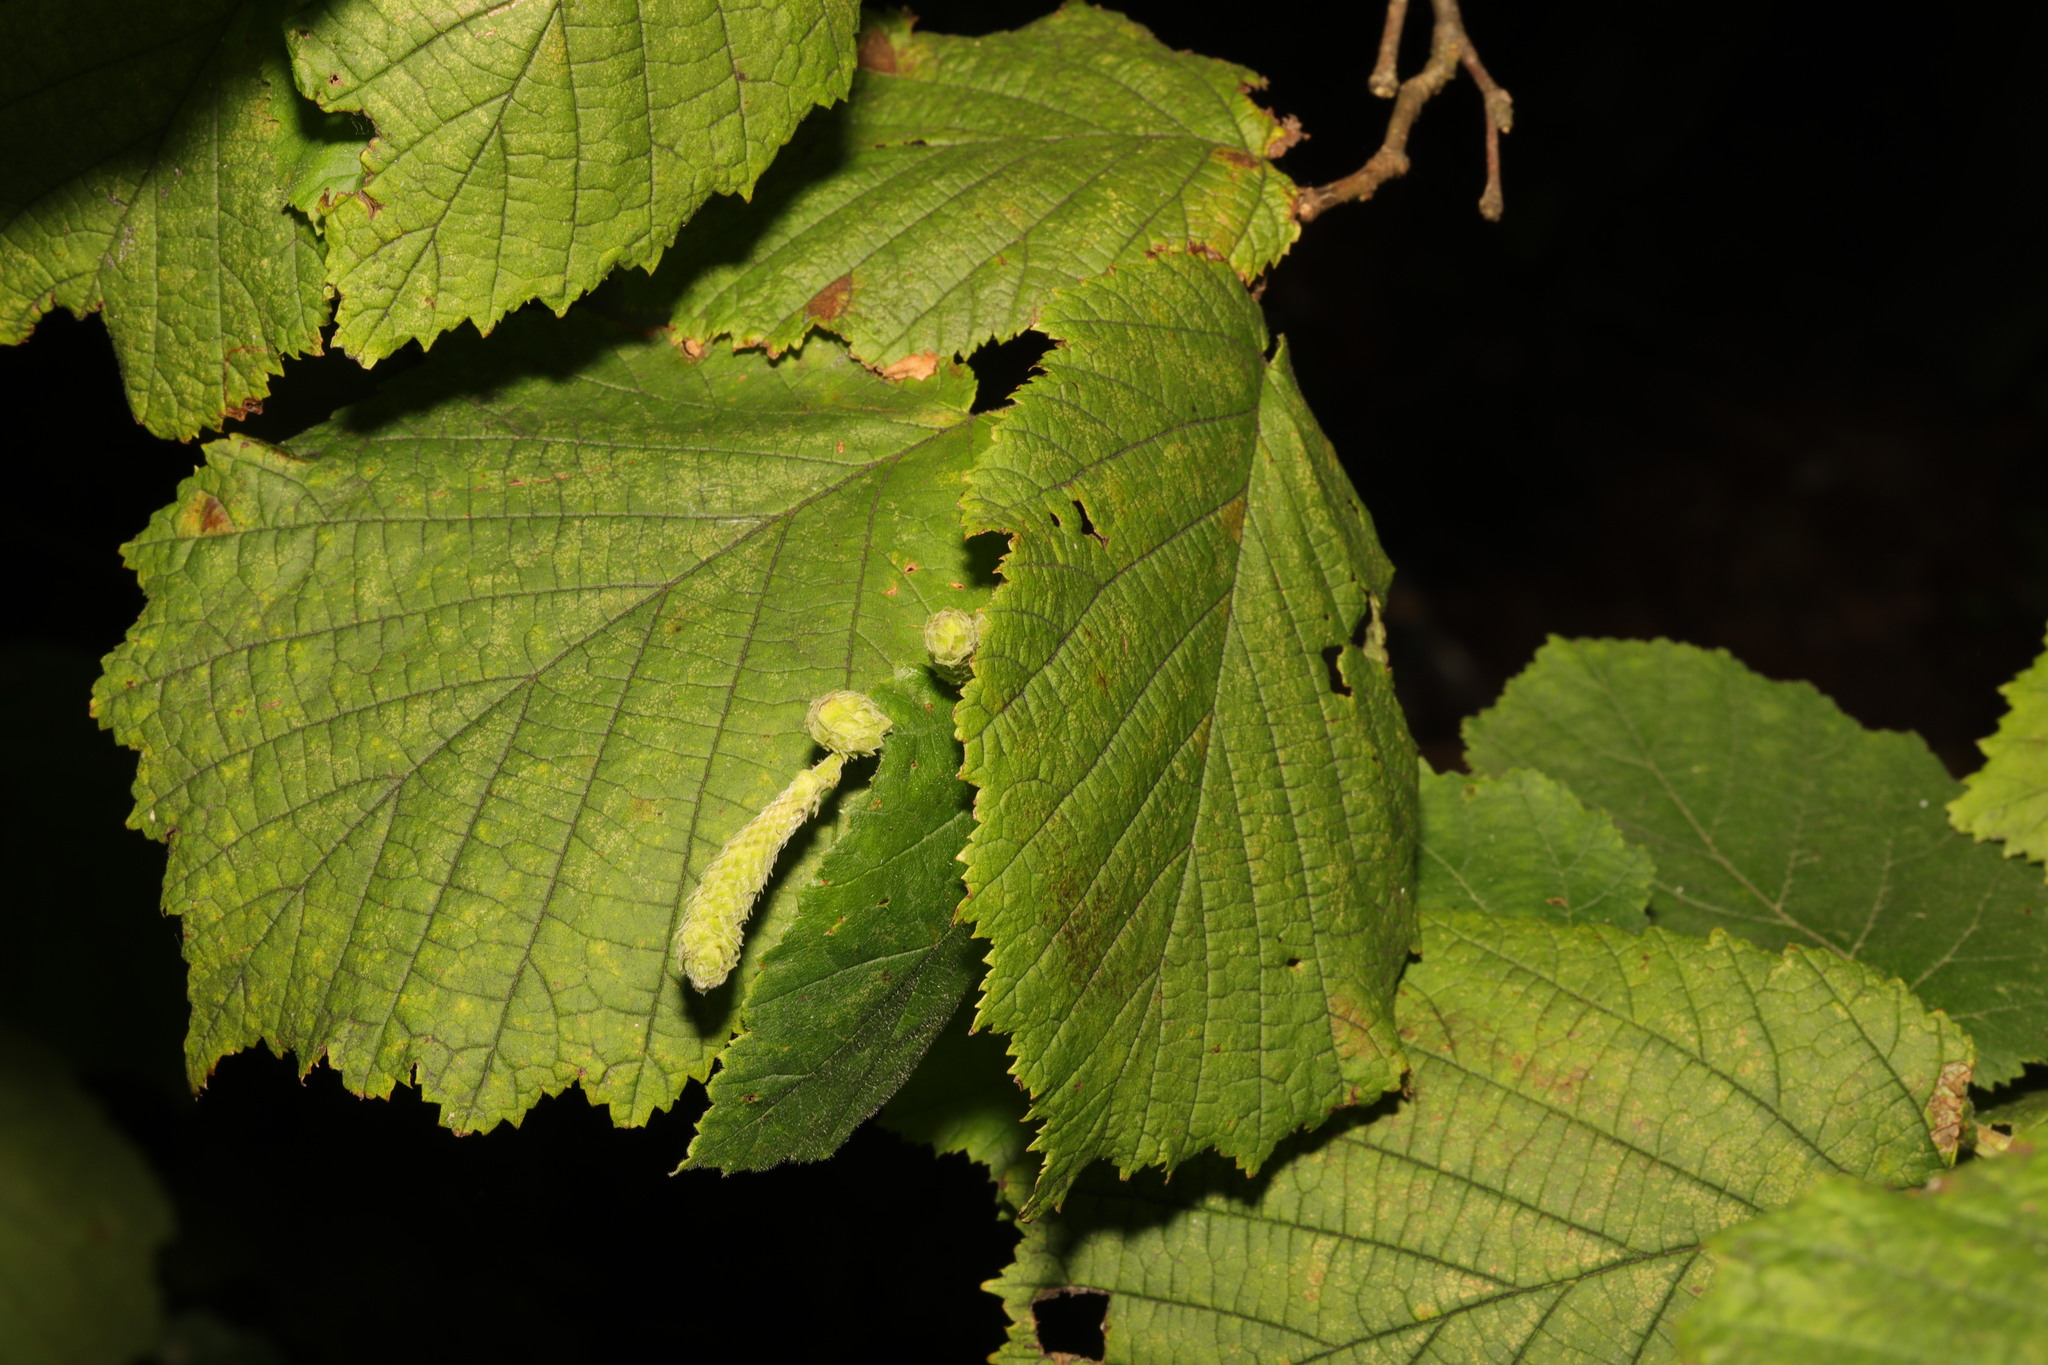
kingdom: Plantae
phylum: Tracheophyta
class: Magnoliopsida
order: Fagales
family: Betulaceae
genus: Corylus
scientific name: Corylus avellana
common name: European hazel
